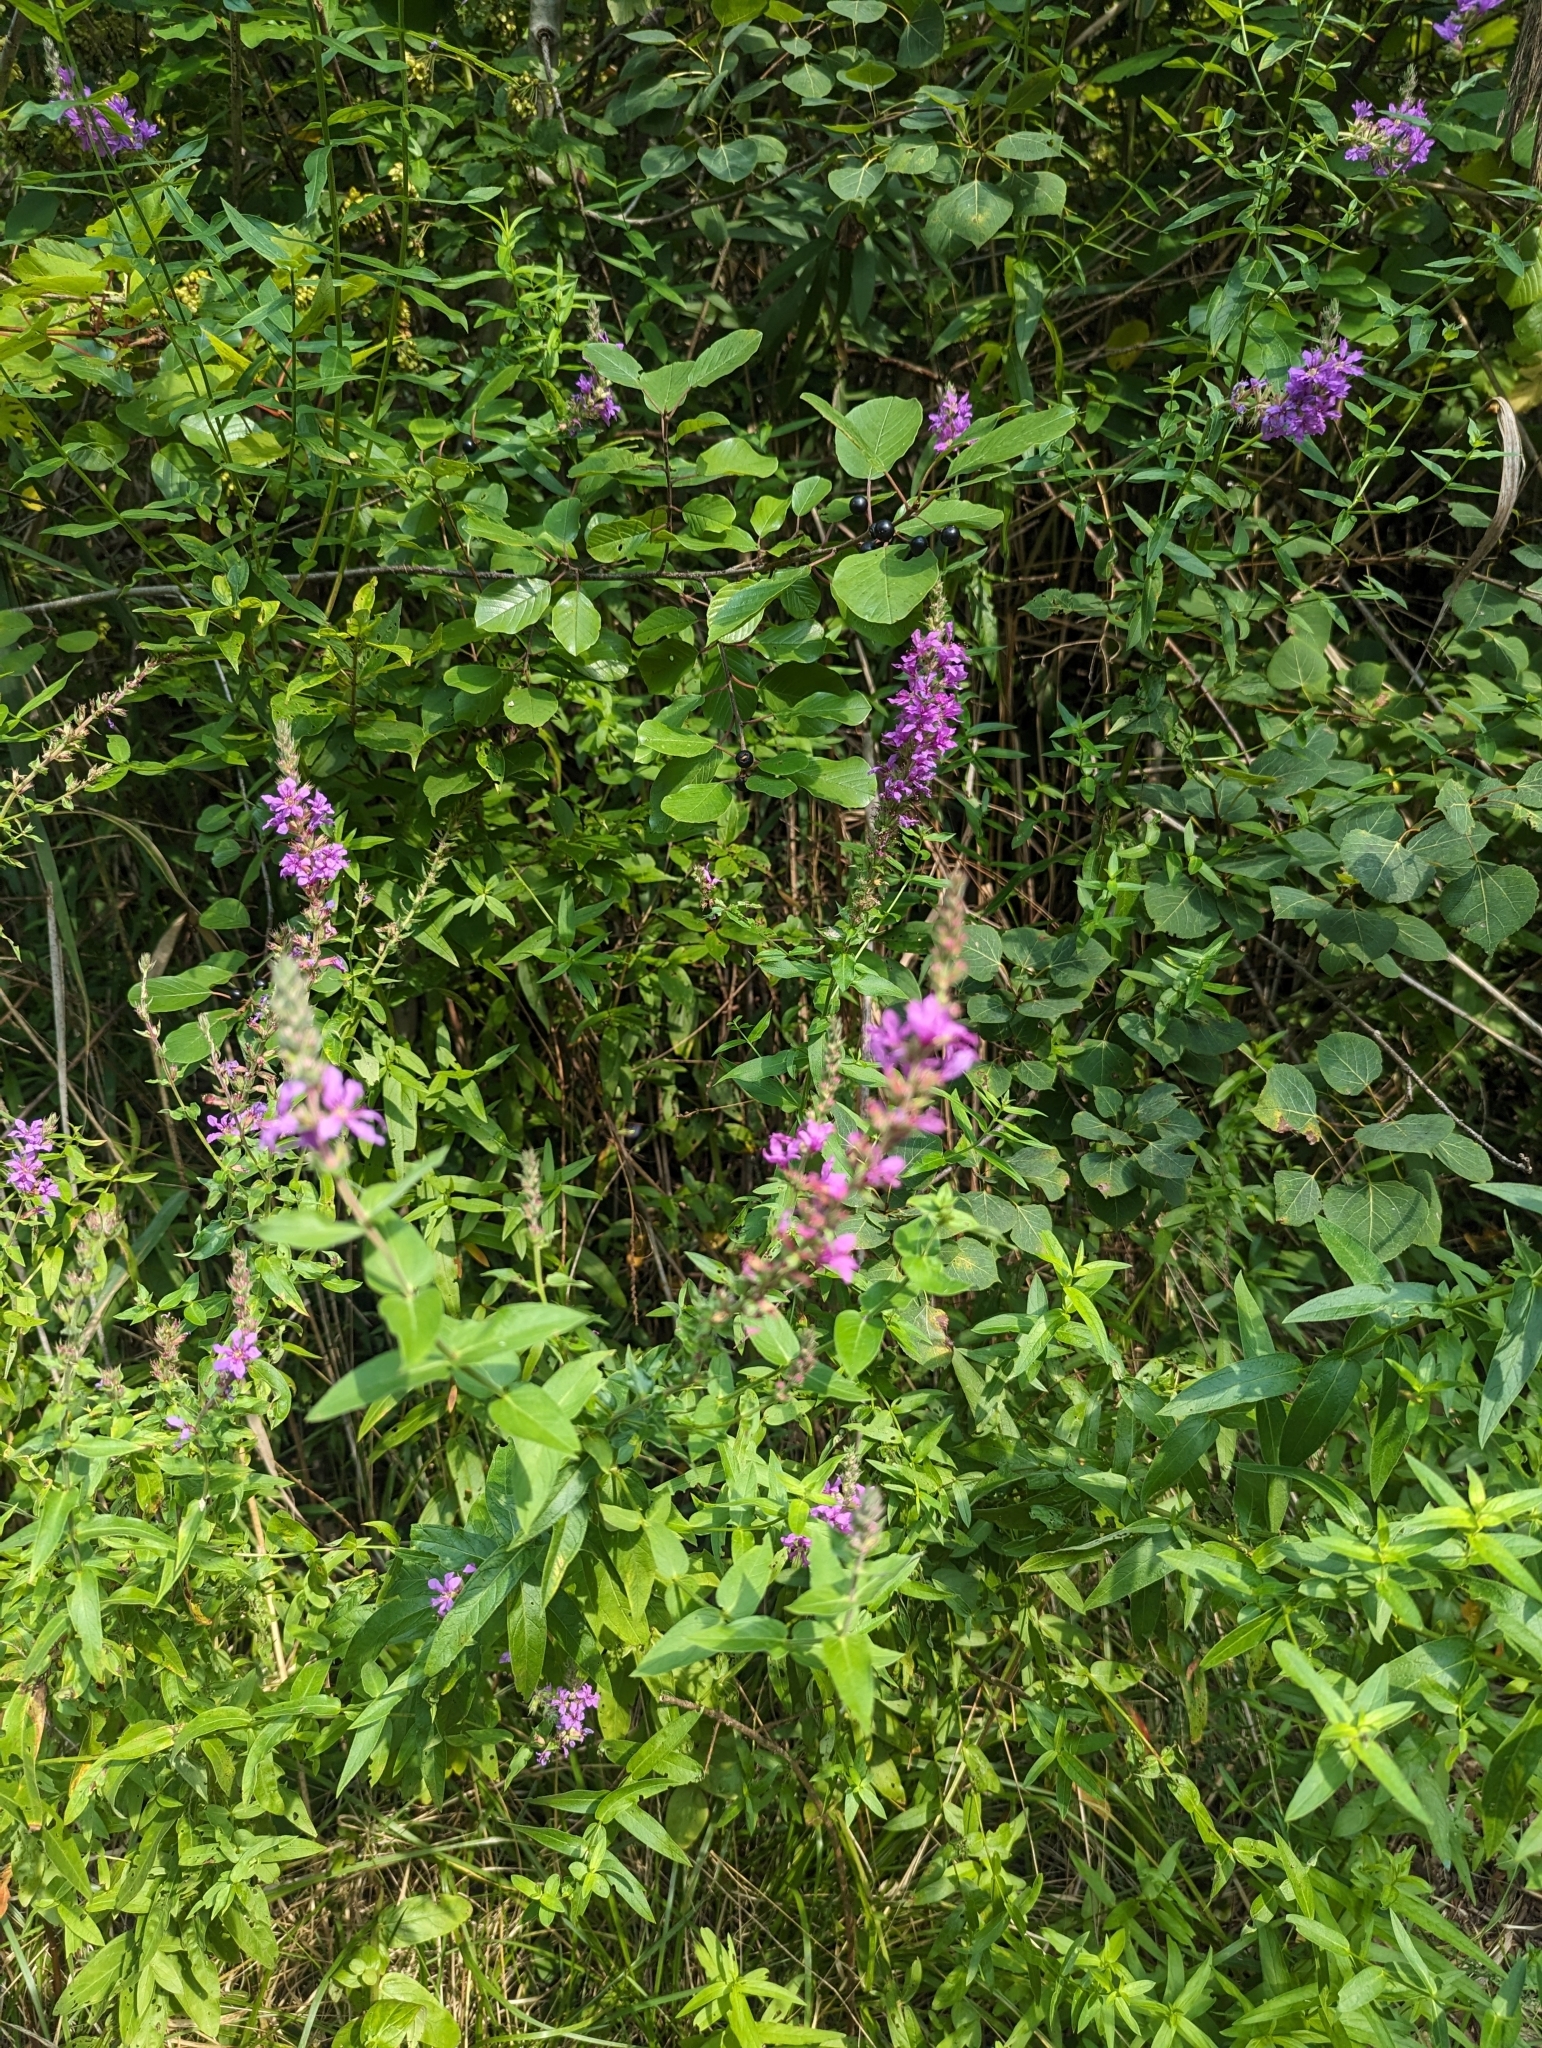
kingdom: Plantae
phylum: Tracheophyta
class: Magnoliopsida
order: Myrtales
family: Lythraceae
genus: Lythrum
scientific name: Lythrum salicaria
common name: Purple loosestrife
